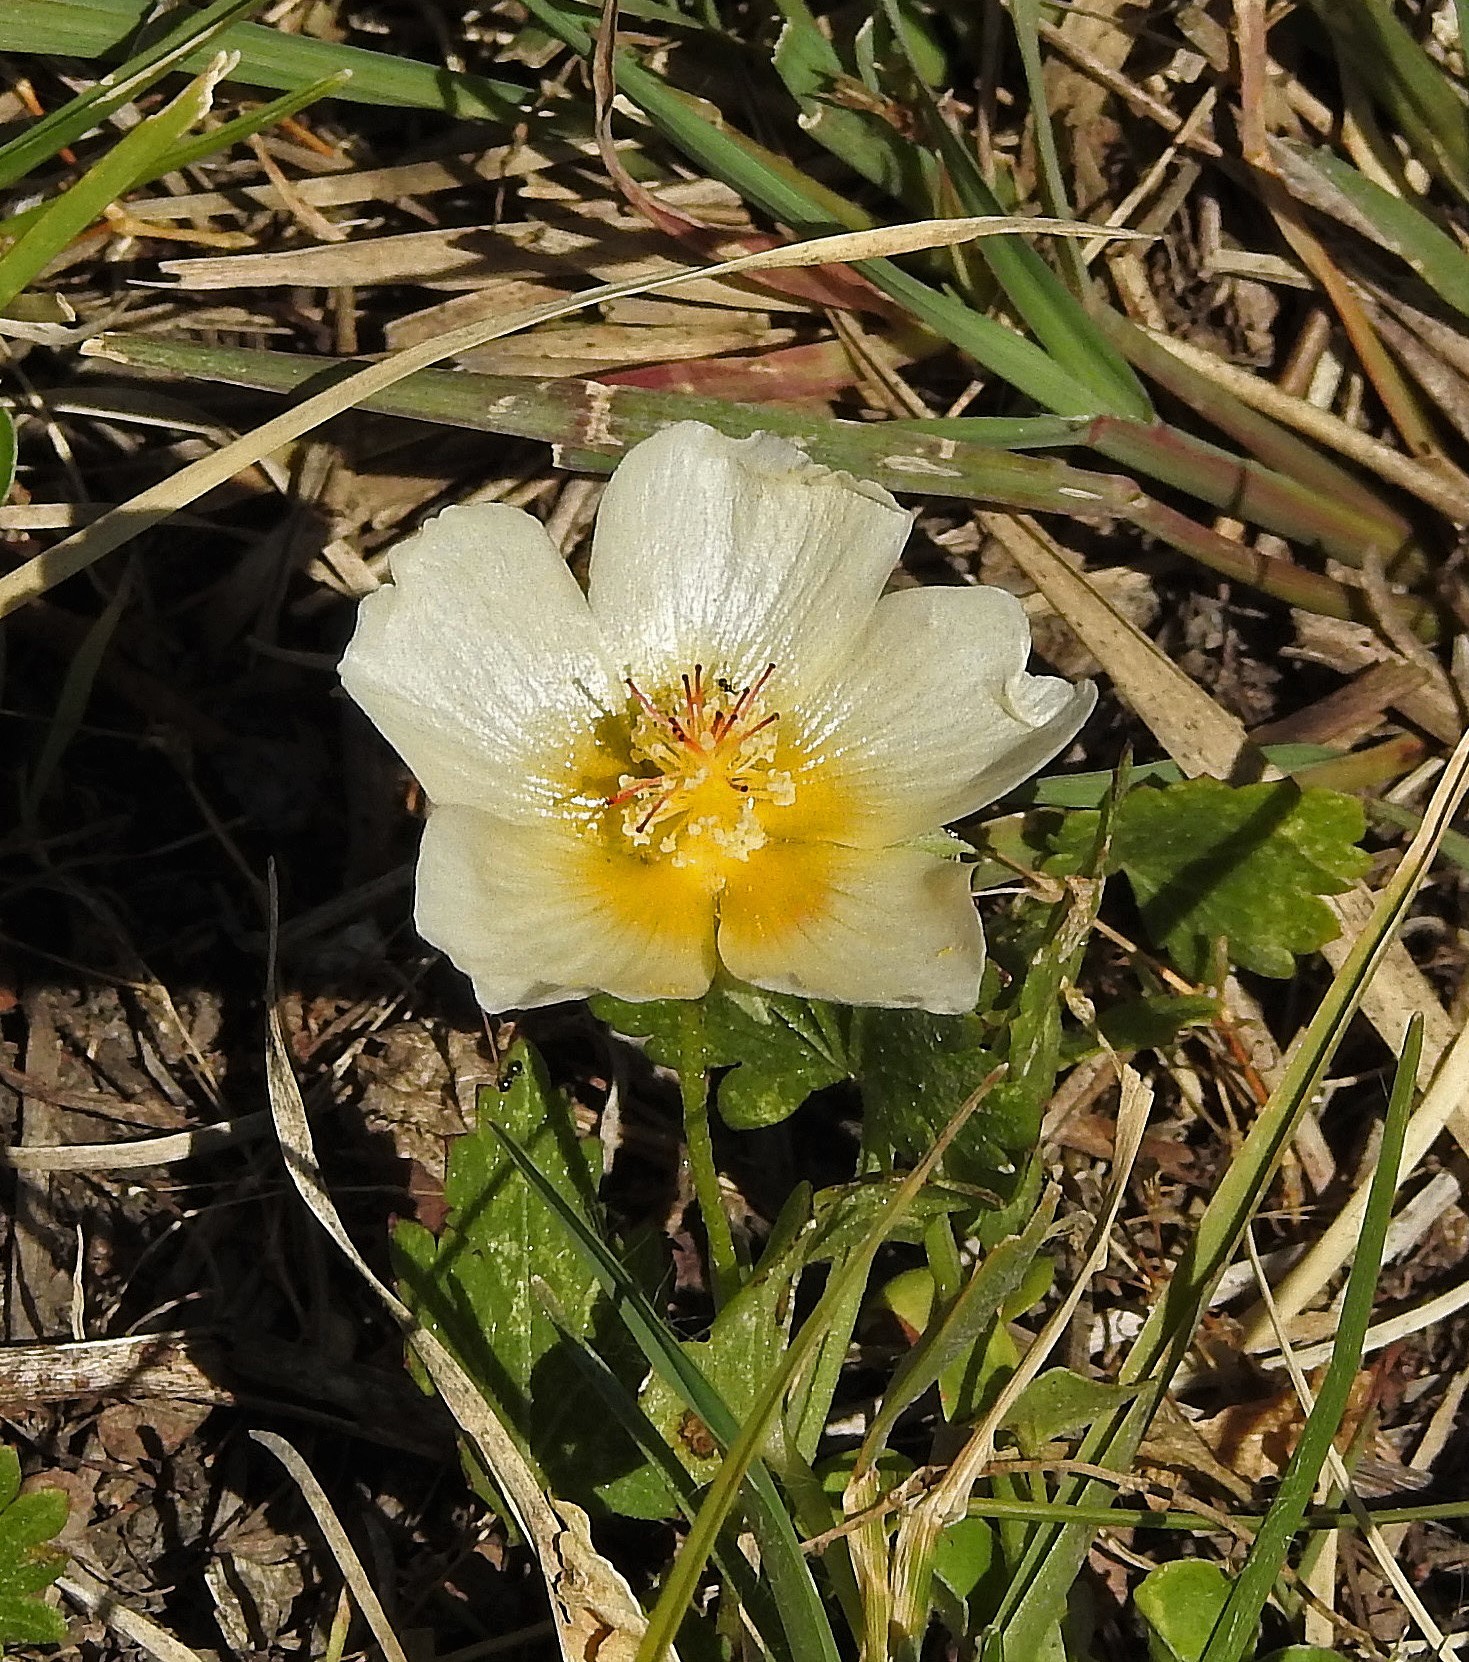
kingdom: Plantae
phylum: Tracheophyta
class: Magnoliopsida
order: Malvales
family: Malvaceae
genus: Modiolastrum
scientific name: Modiolastrum malvifolium
